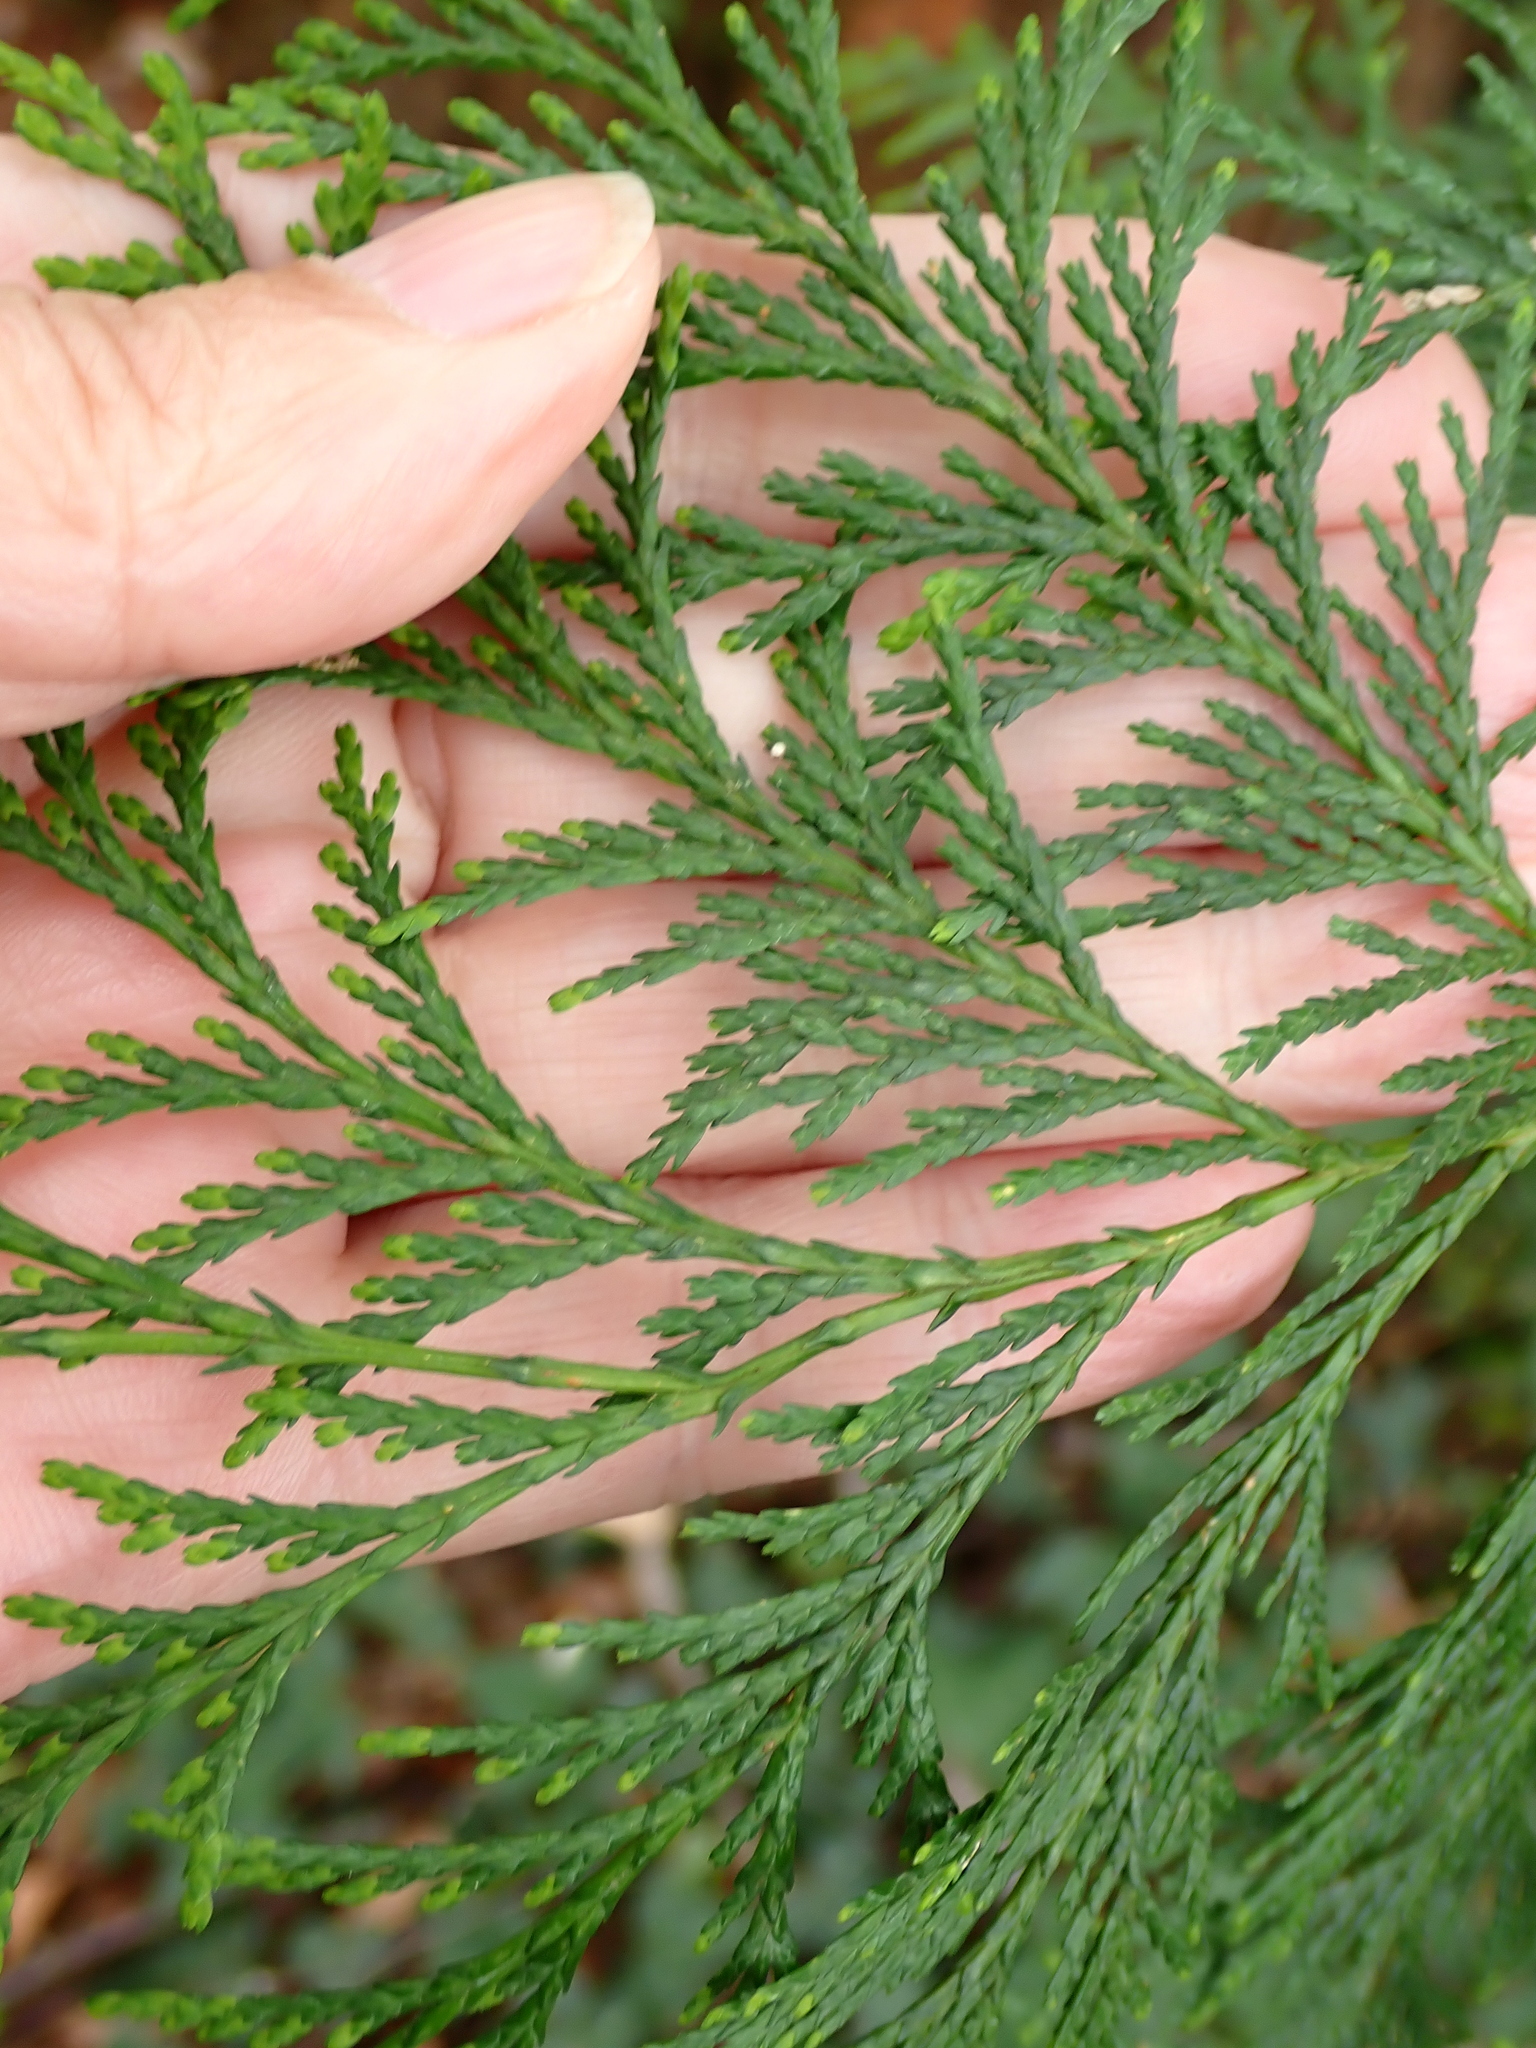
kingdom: Plantae
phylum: Tracheophyta
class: Pinopsida
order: Pinales
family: Cupressaceae
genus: Chamaecyparis
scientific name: Chamaecyparis lawsoniana
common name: Lawson's cypress
